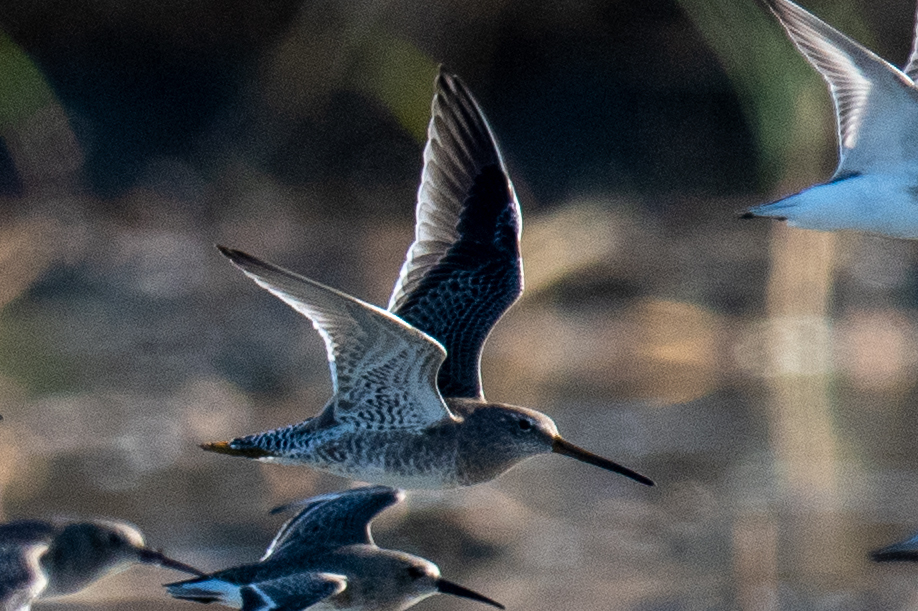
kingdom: Animalia
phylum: Chordata
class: Aves
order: Charadriiformes
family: Scolopacidae
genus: Limnodromus
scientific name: Limnodromus scolopaceus
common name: Long-billed dowitcher
